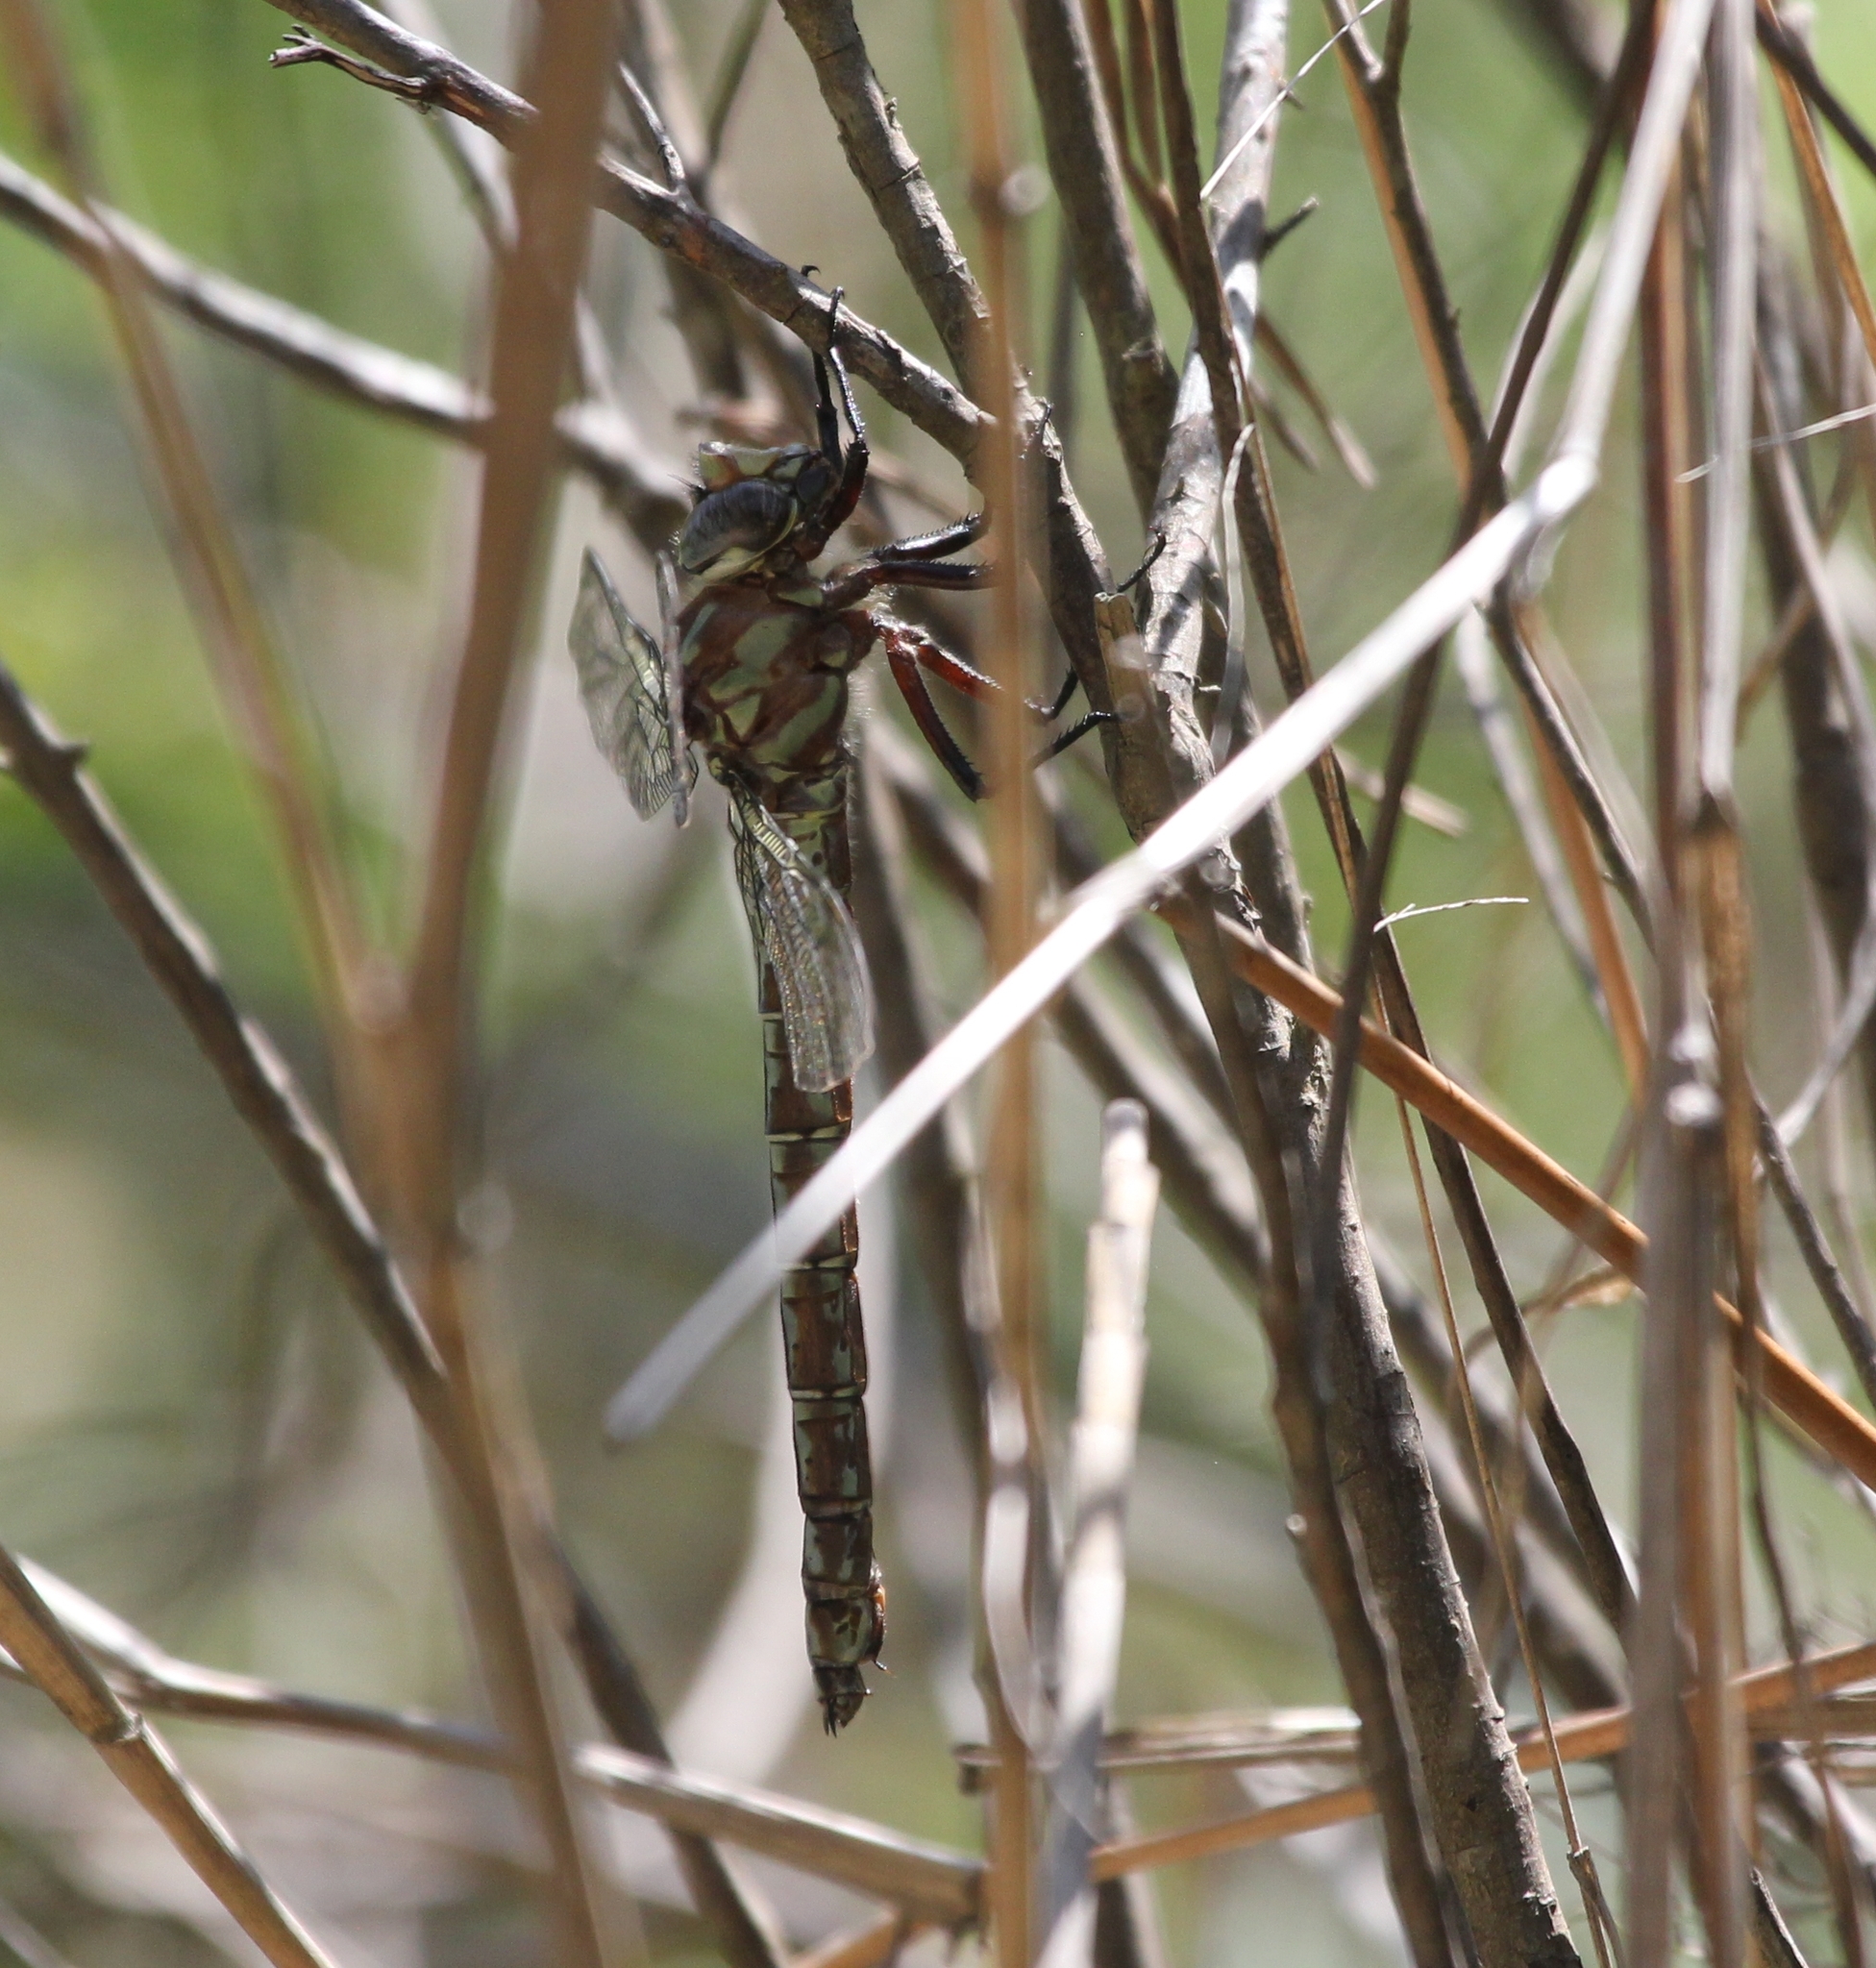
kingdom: Animalia
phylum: Arthropoda
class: Insecta
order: Odonata
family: Aeshnidae
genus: Nasiaeschna
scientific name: Nasiaeschna pentacantha
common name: Cyrano darner
